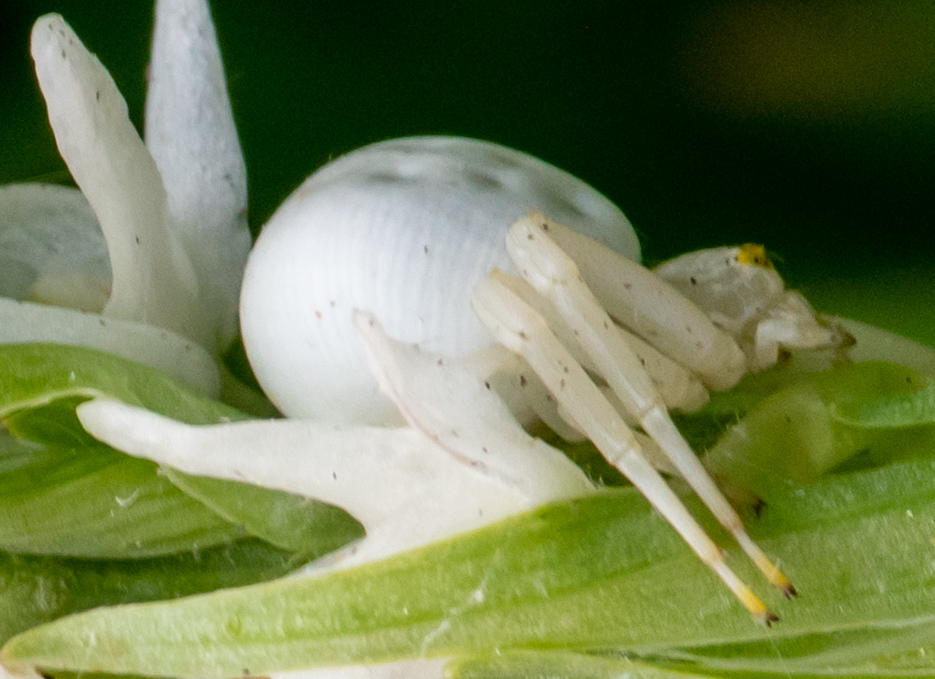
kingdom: Animalia
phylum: Arthropoda
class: Arachnida
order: Araneae
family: Thomisidae
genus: Misumena
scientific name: Misumena vatia
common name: Goldenrod crab spider
